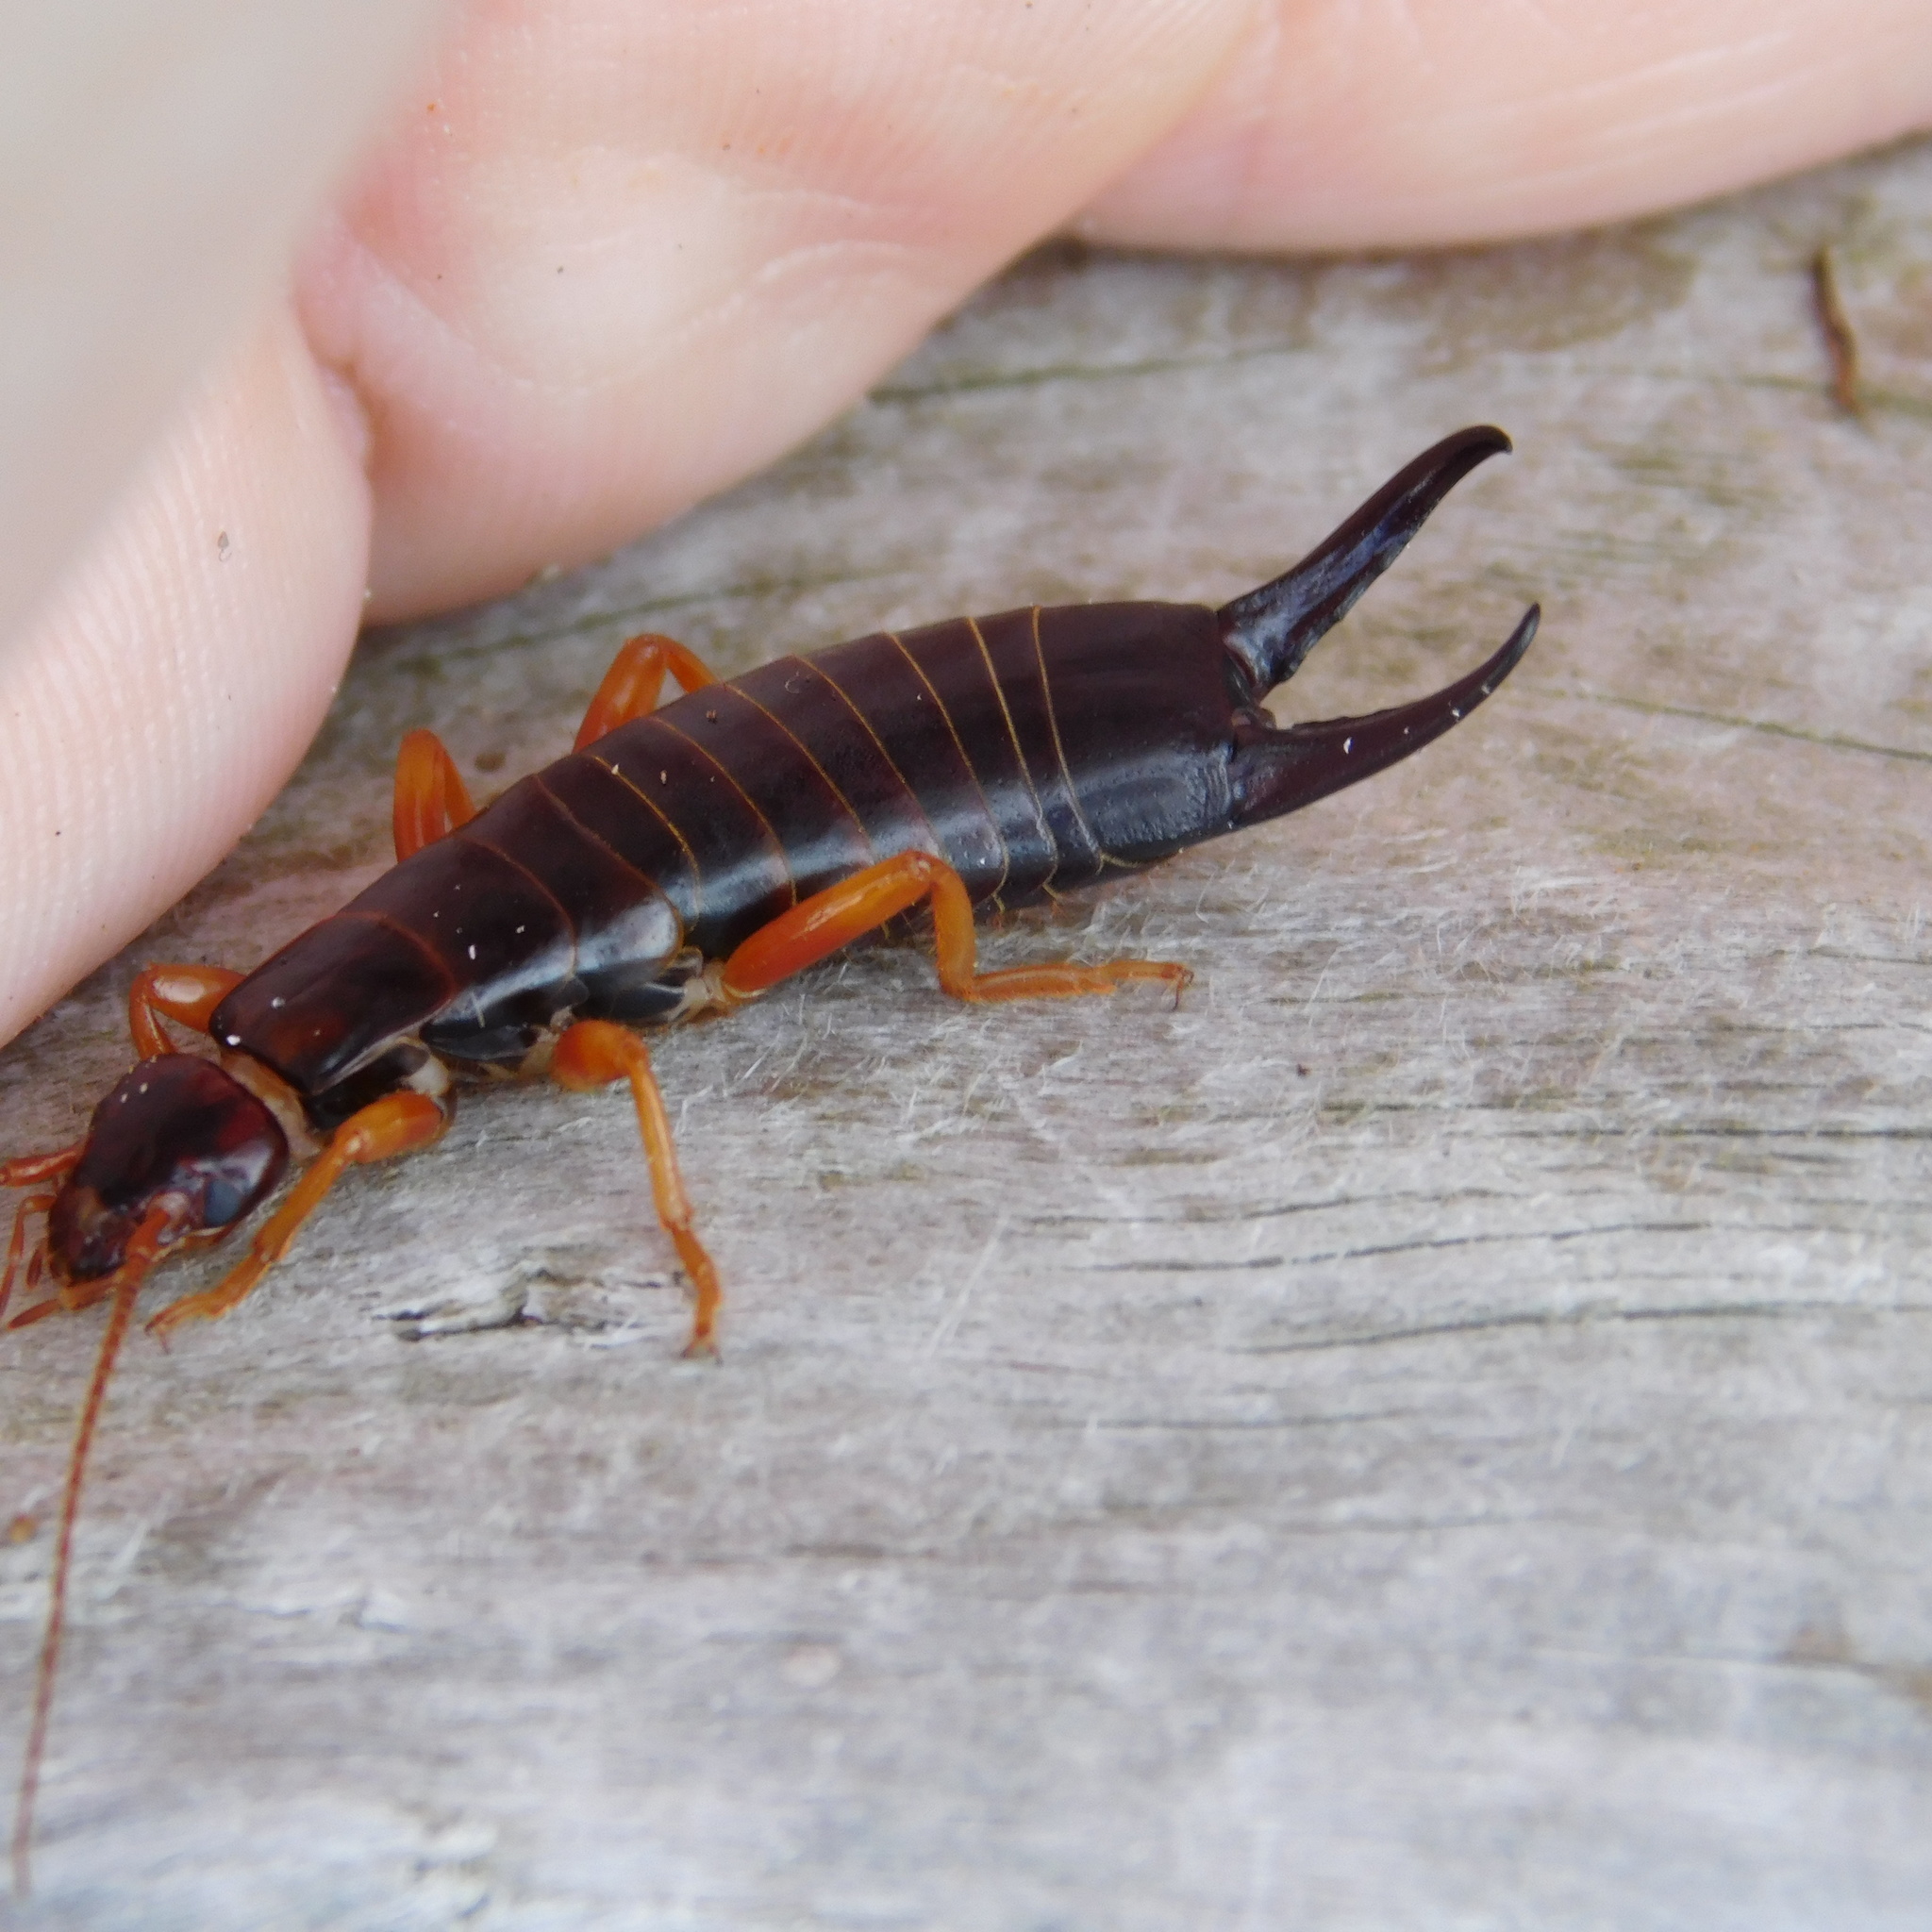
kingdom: Animalia
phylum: Arthropoda
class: Insecta
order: Dermaptera
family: Anisolabididae
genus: Anisolabis
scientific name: Anisolabis littorea
